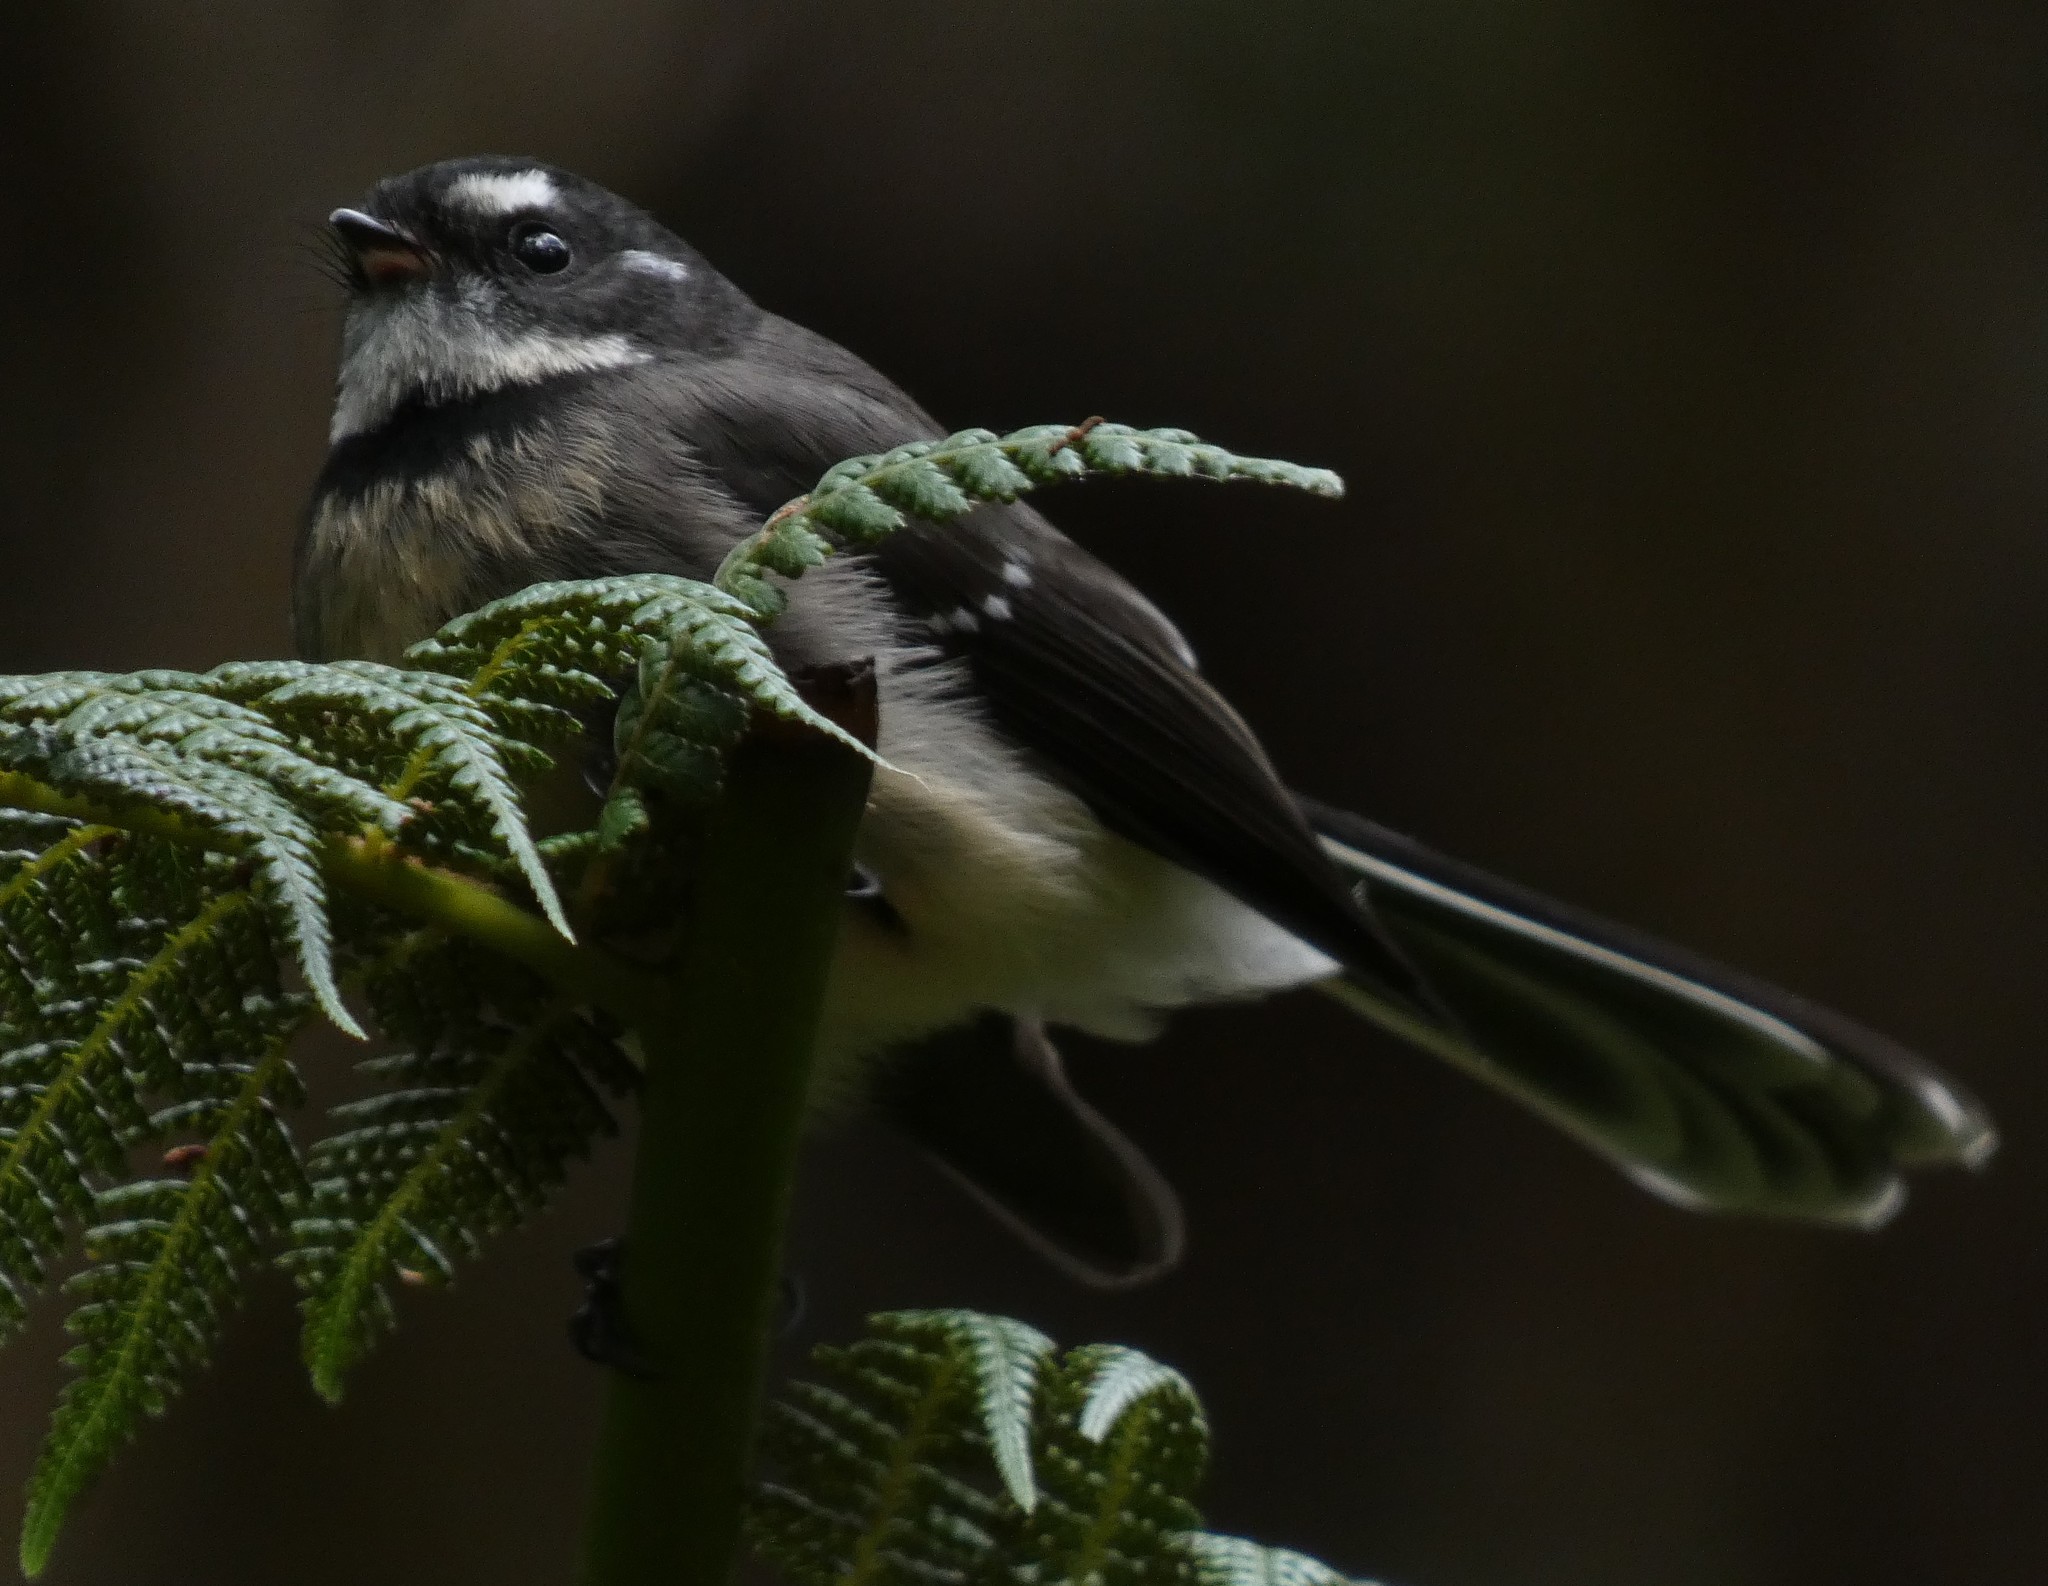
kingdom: Animalia
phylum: Chordata
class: Aves
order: Passeriformes
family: Rhipiduridae
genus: Rhipidura
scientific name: Rhipidura albiscapa
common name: Grey fantail
